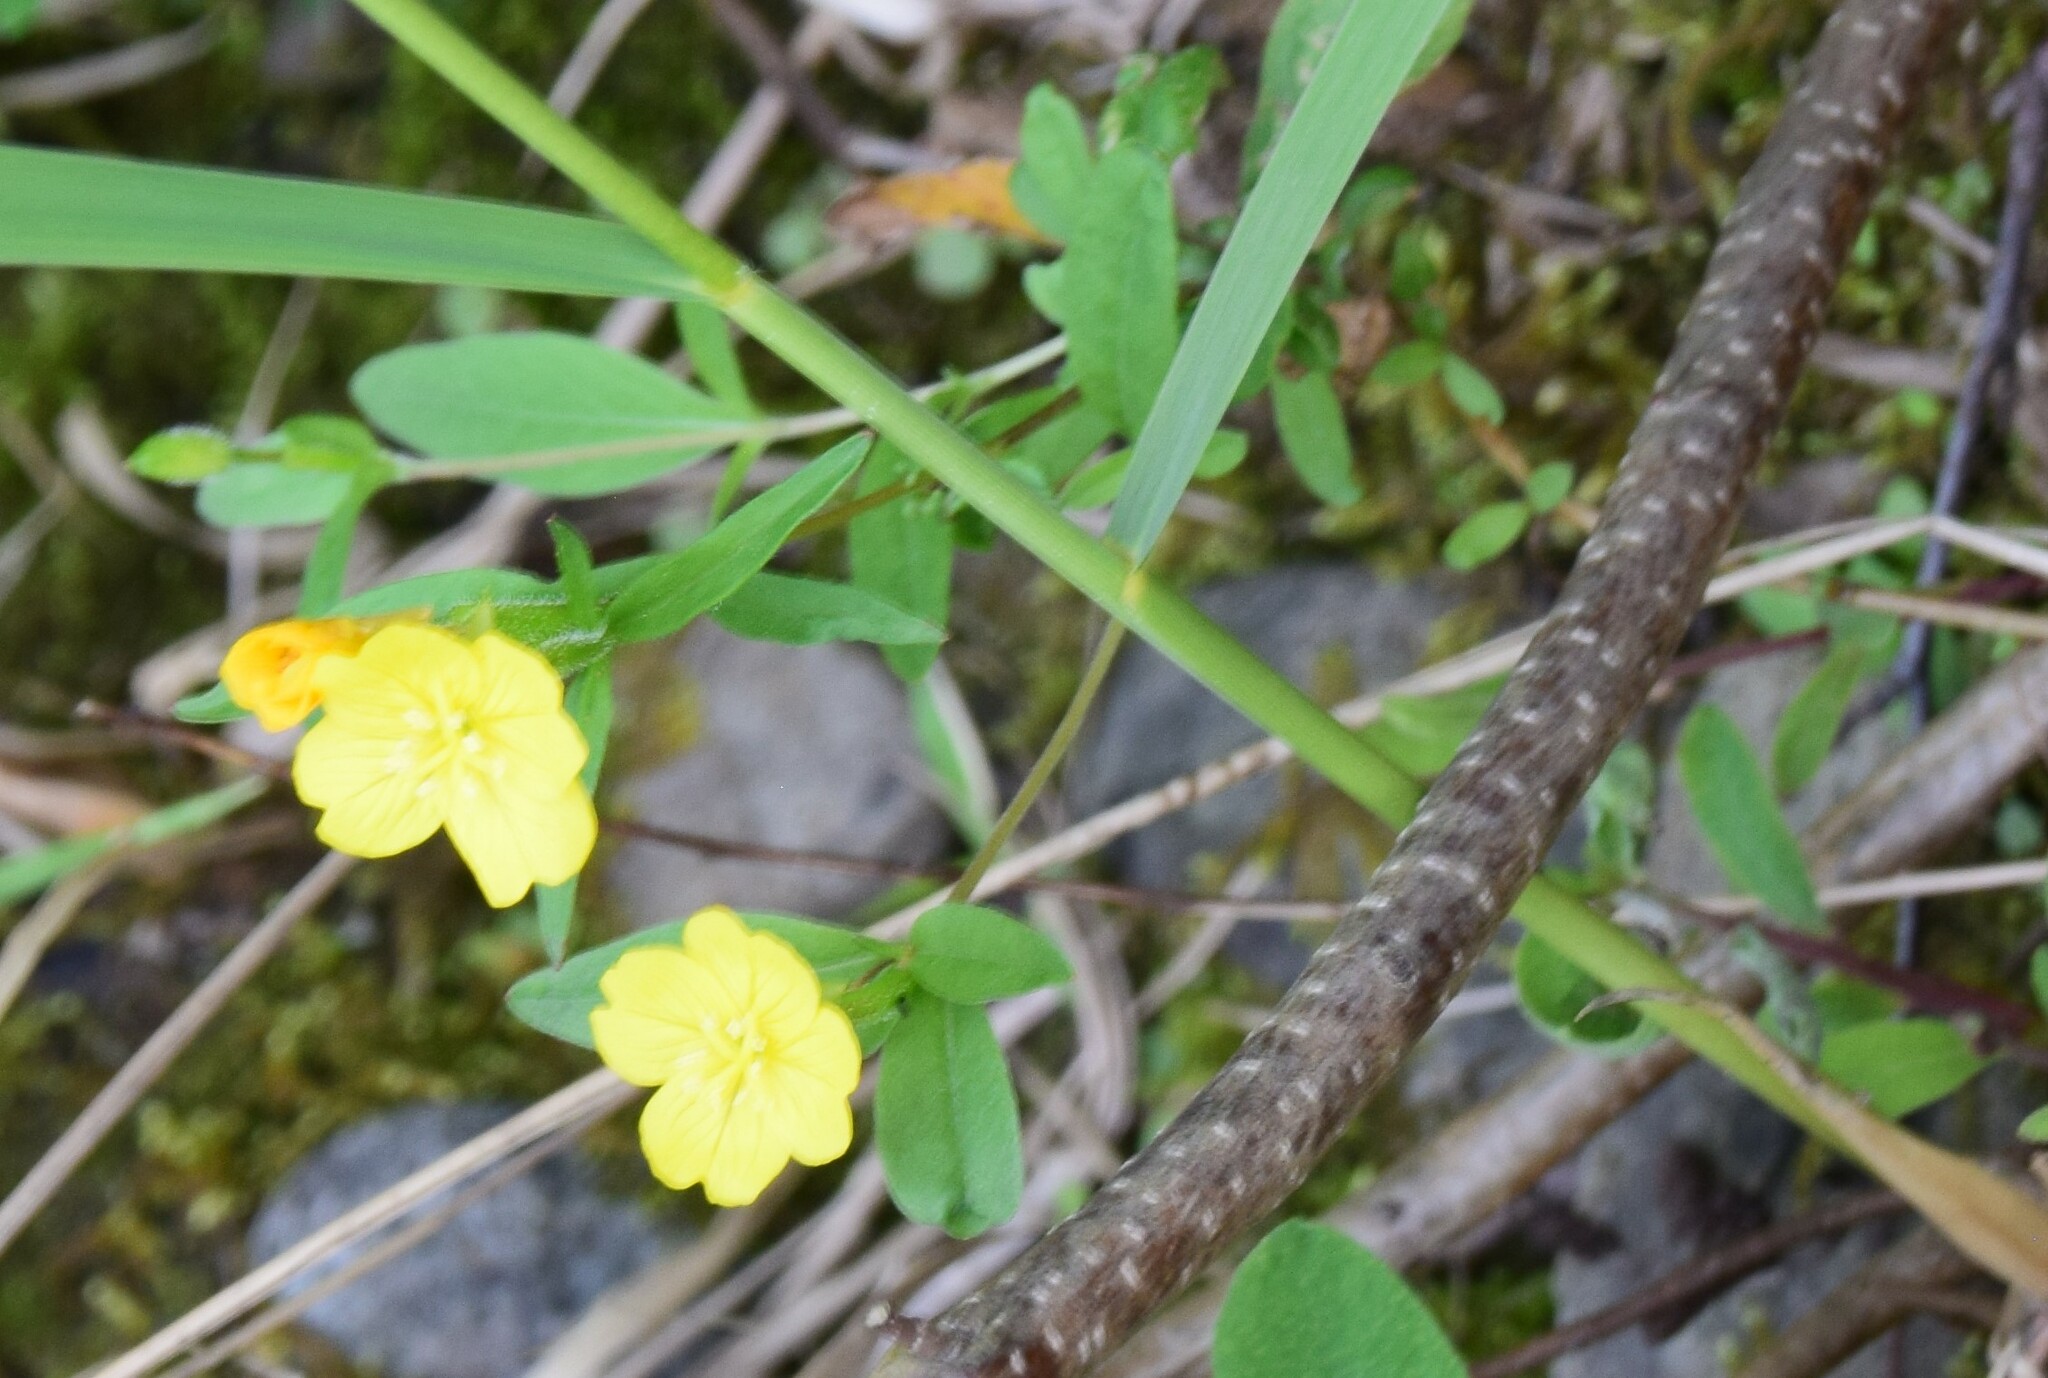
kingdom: Plantae
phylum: Tracheophyta
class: Magnoliopsida
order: Myrtales
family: Onagraceae
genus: Oenothera
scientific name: Oenothera perennis
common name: Small sundrops
